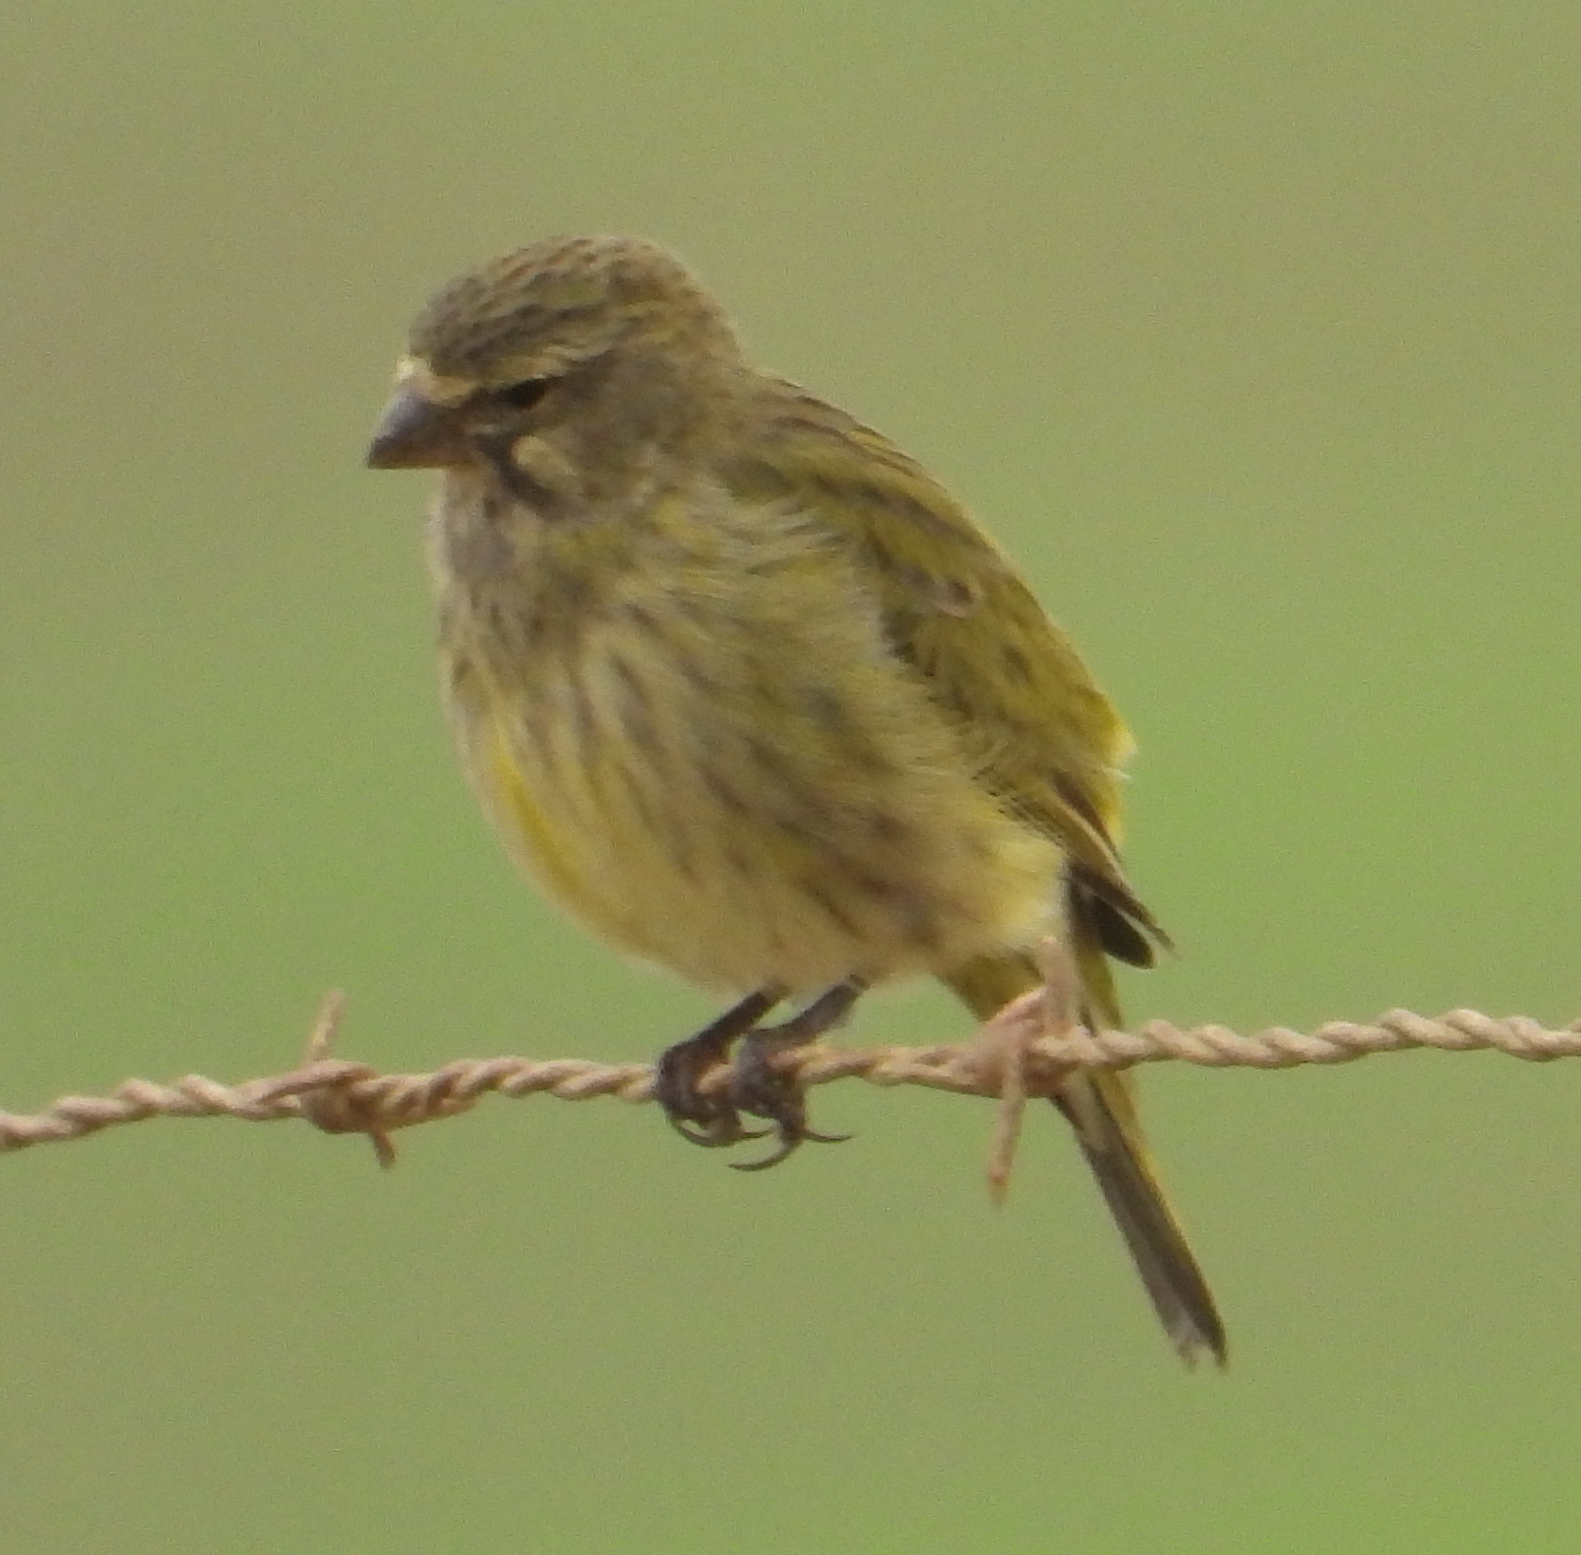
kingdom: Animalia
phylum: Chordata
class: Aves
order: Passeriformes
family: Fringillidae
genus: Crithagra
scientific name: Crithagra flaviventris
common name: Yellow canary
